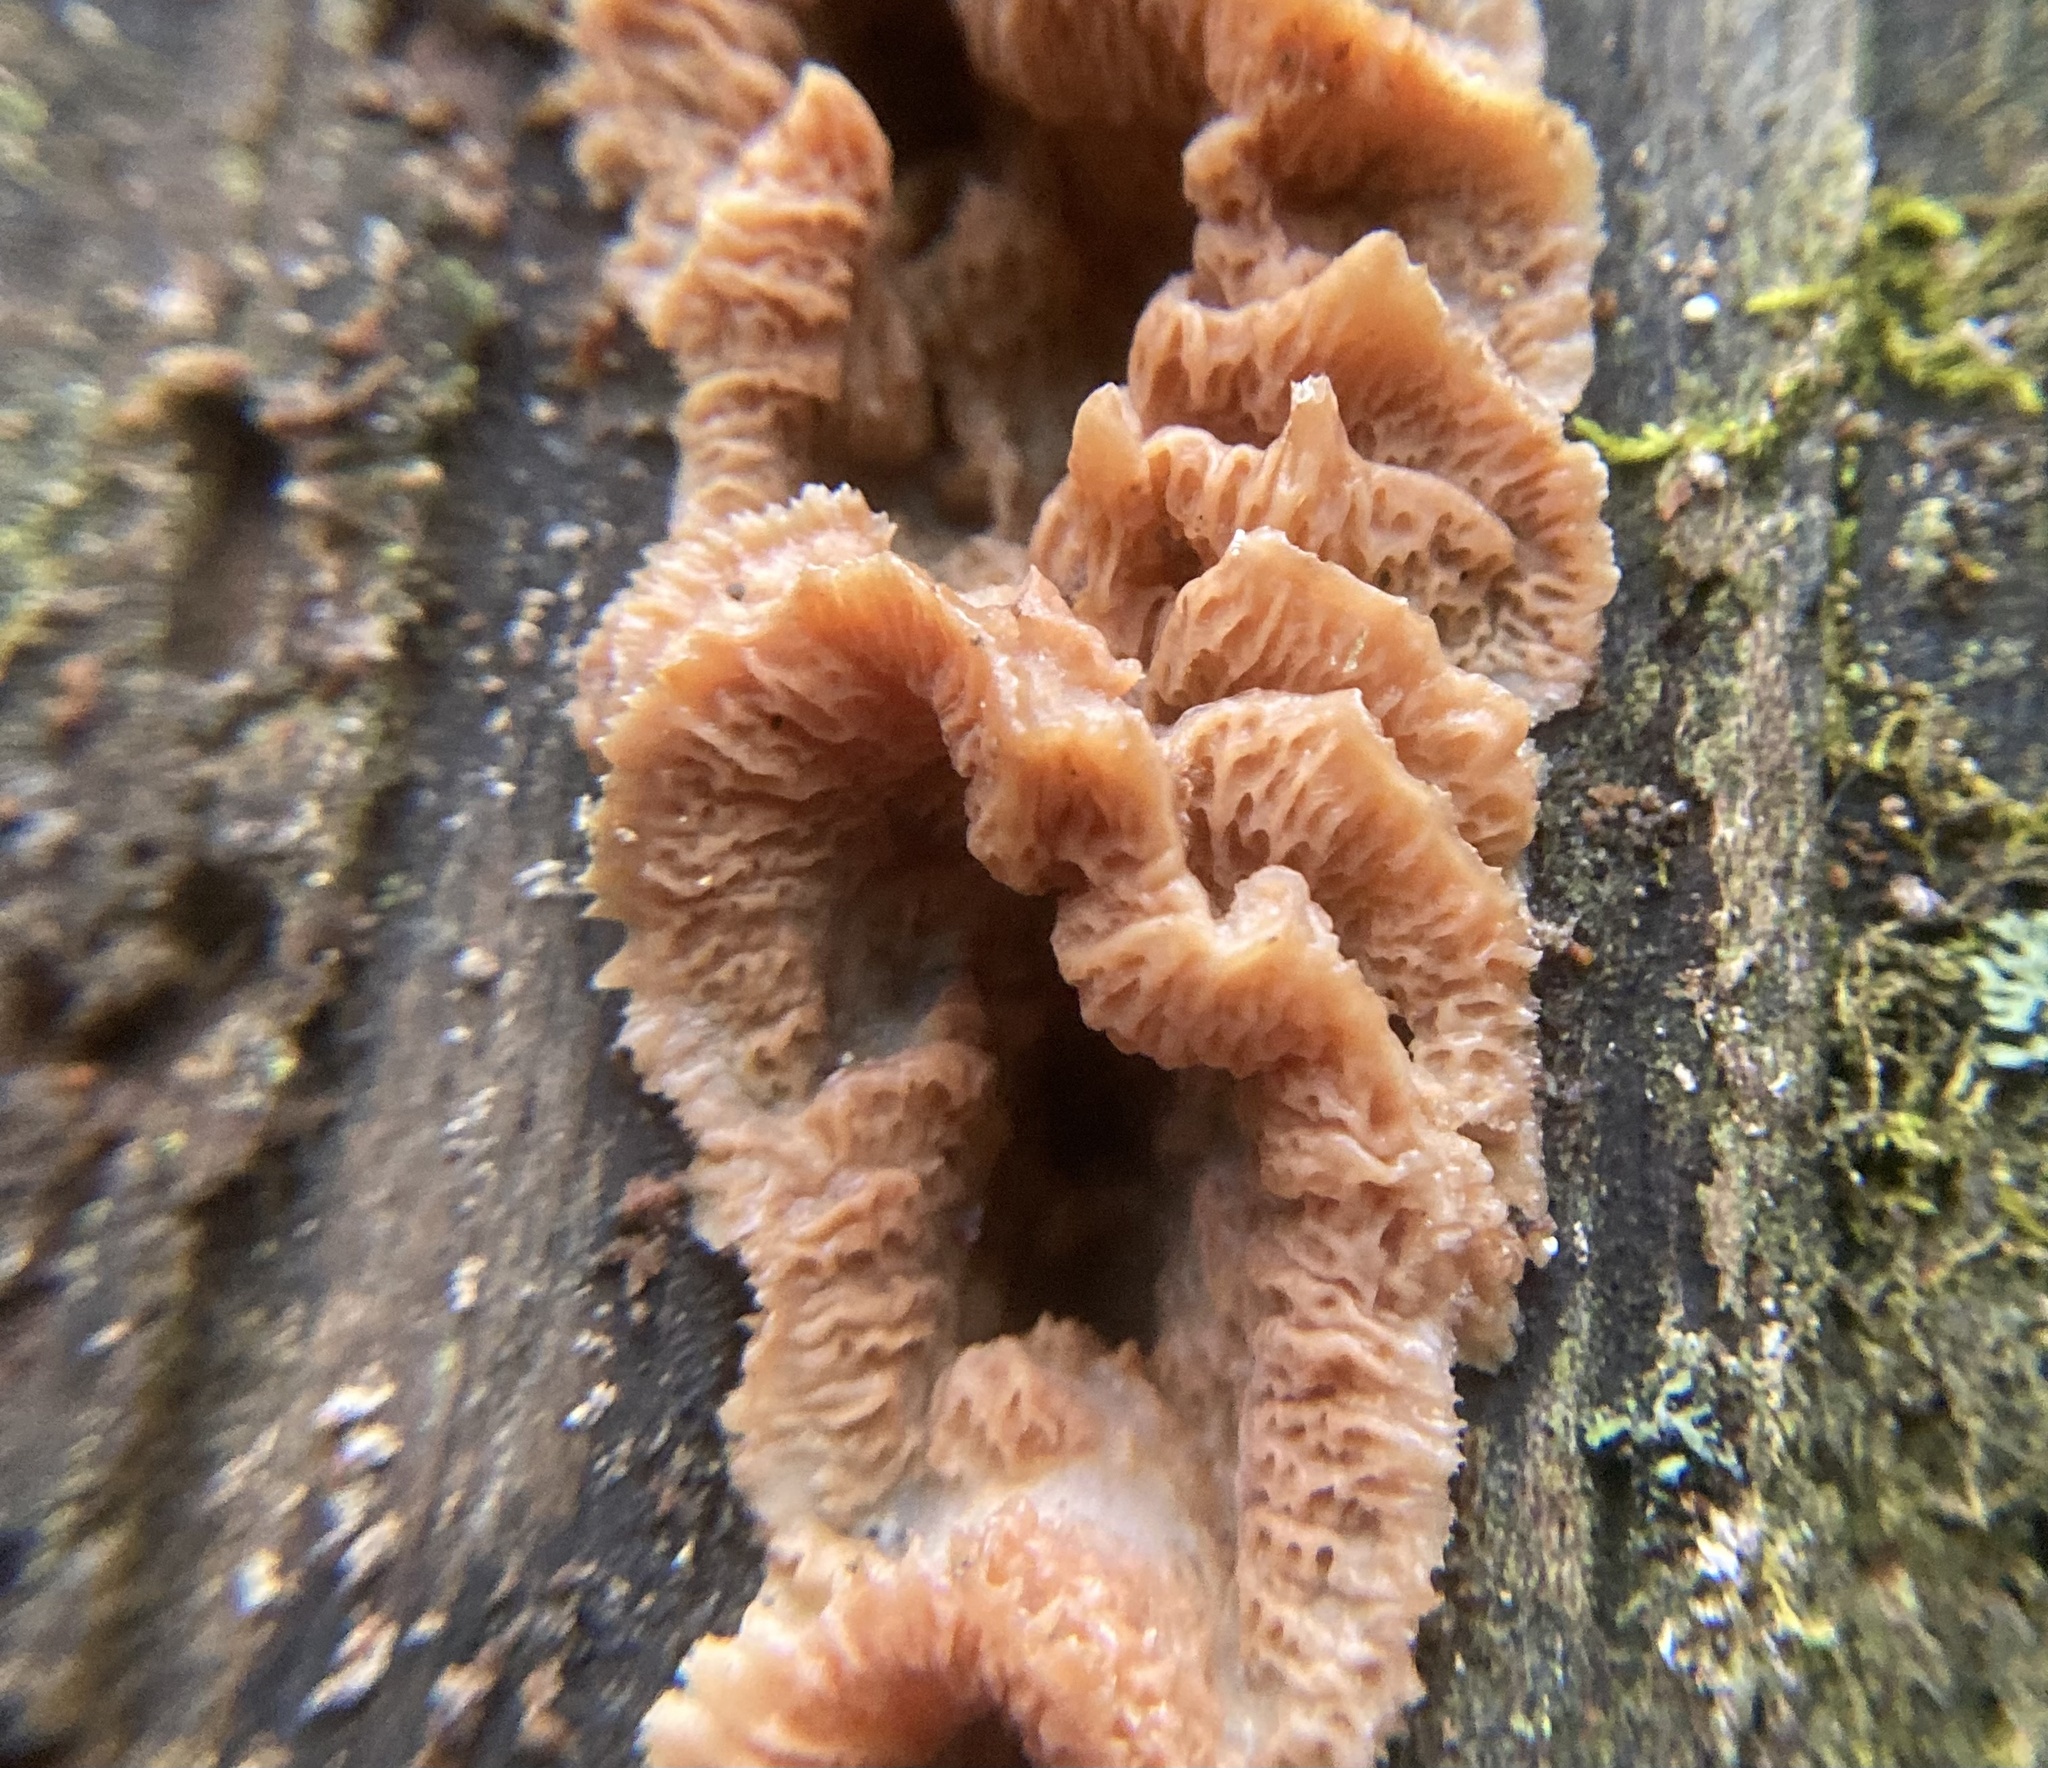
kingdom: Fungi
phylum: Basidiomycota
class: Agaricomycetes
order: Polyporales
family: Meruliaceae
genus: Phlebia
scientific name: Phlebia tremellosa
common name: Jelly rot
